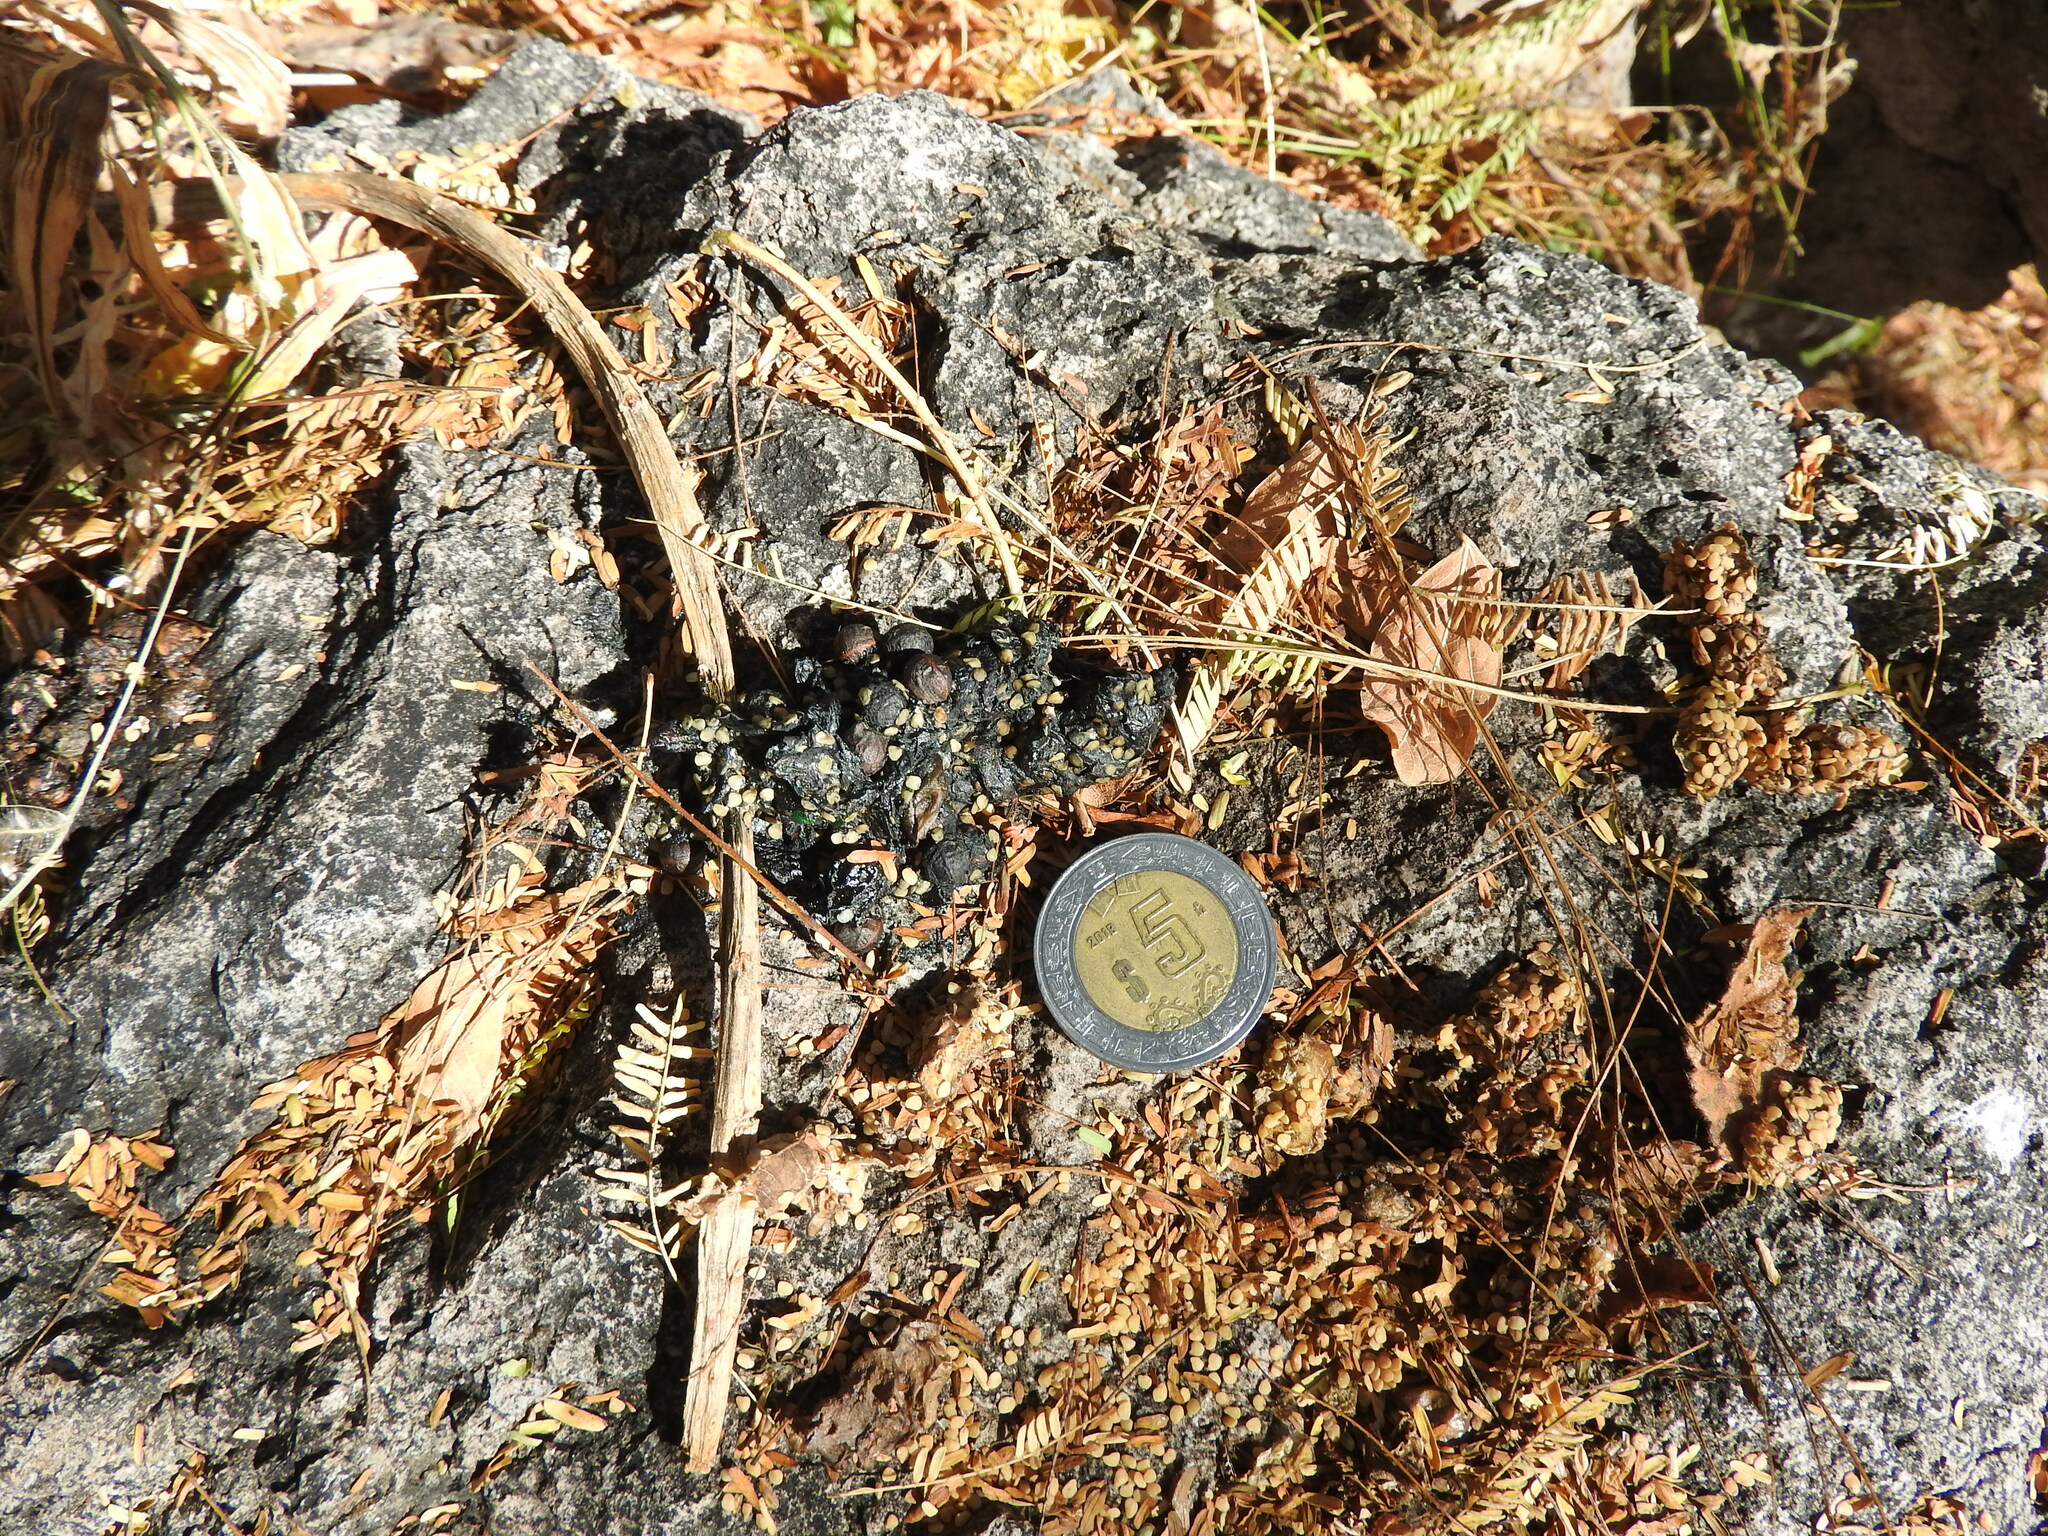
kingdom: Animalia
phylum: Chordata
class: Mammalia
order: Carnivora
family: Procyonidae
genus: Bassariscus
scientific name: Bassariscus astutus
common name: Ringtail
